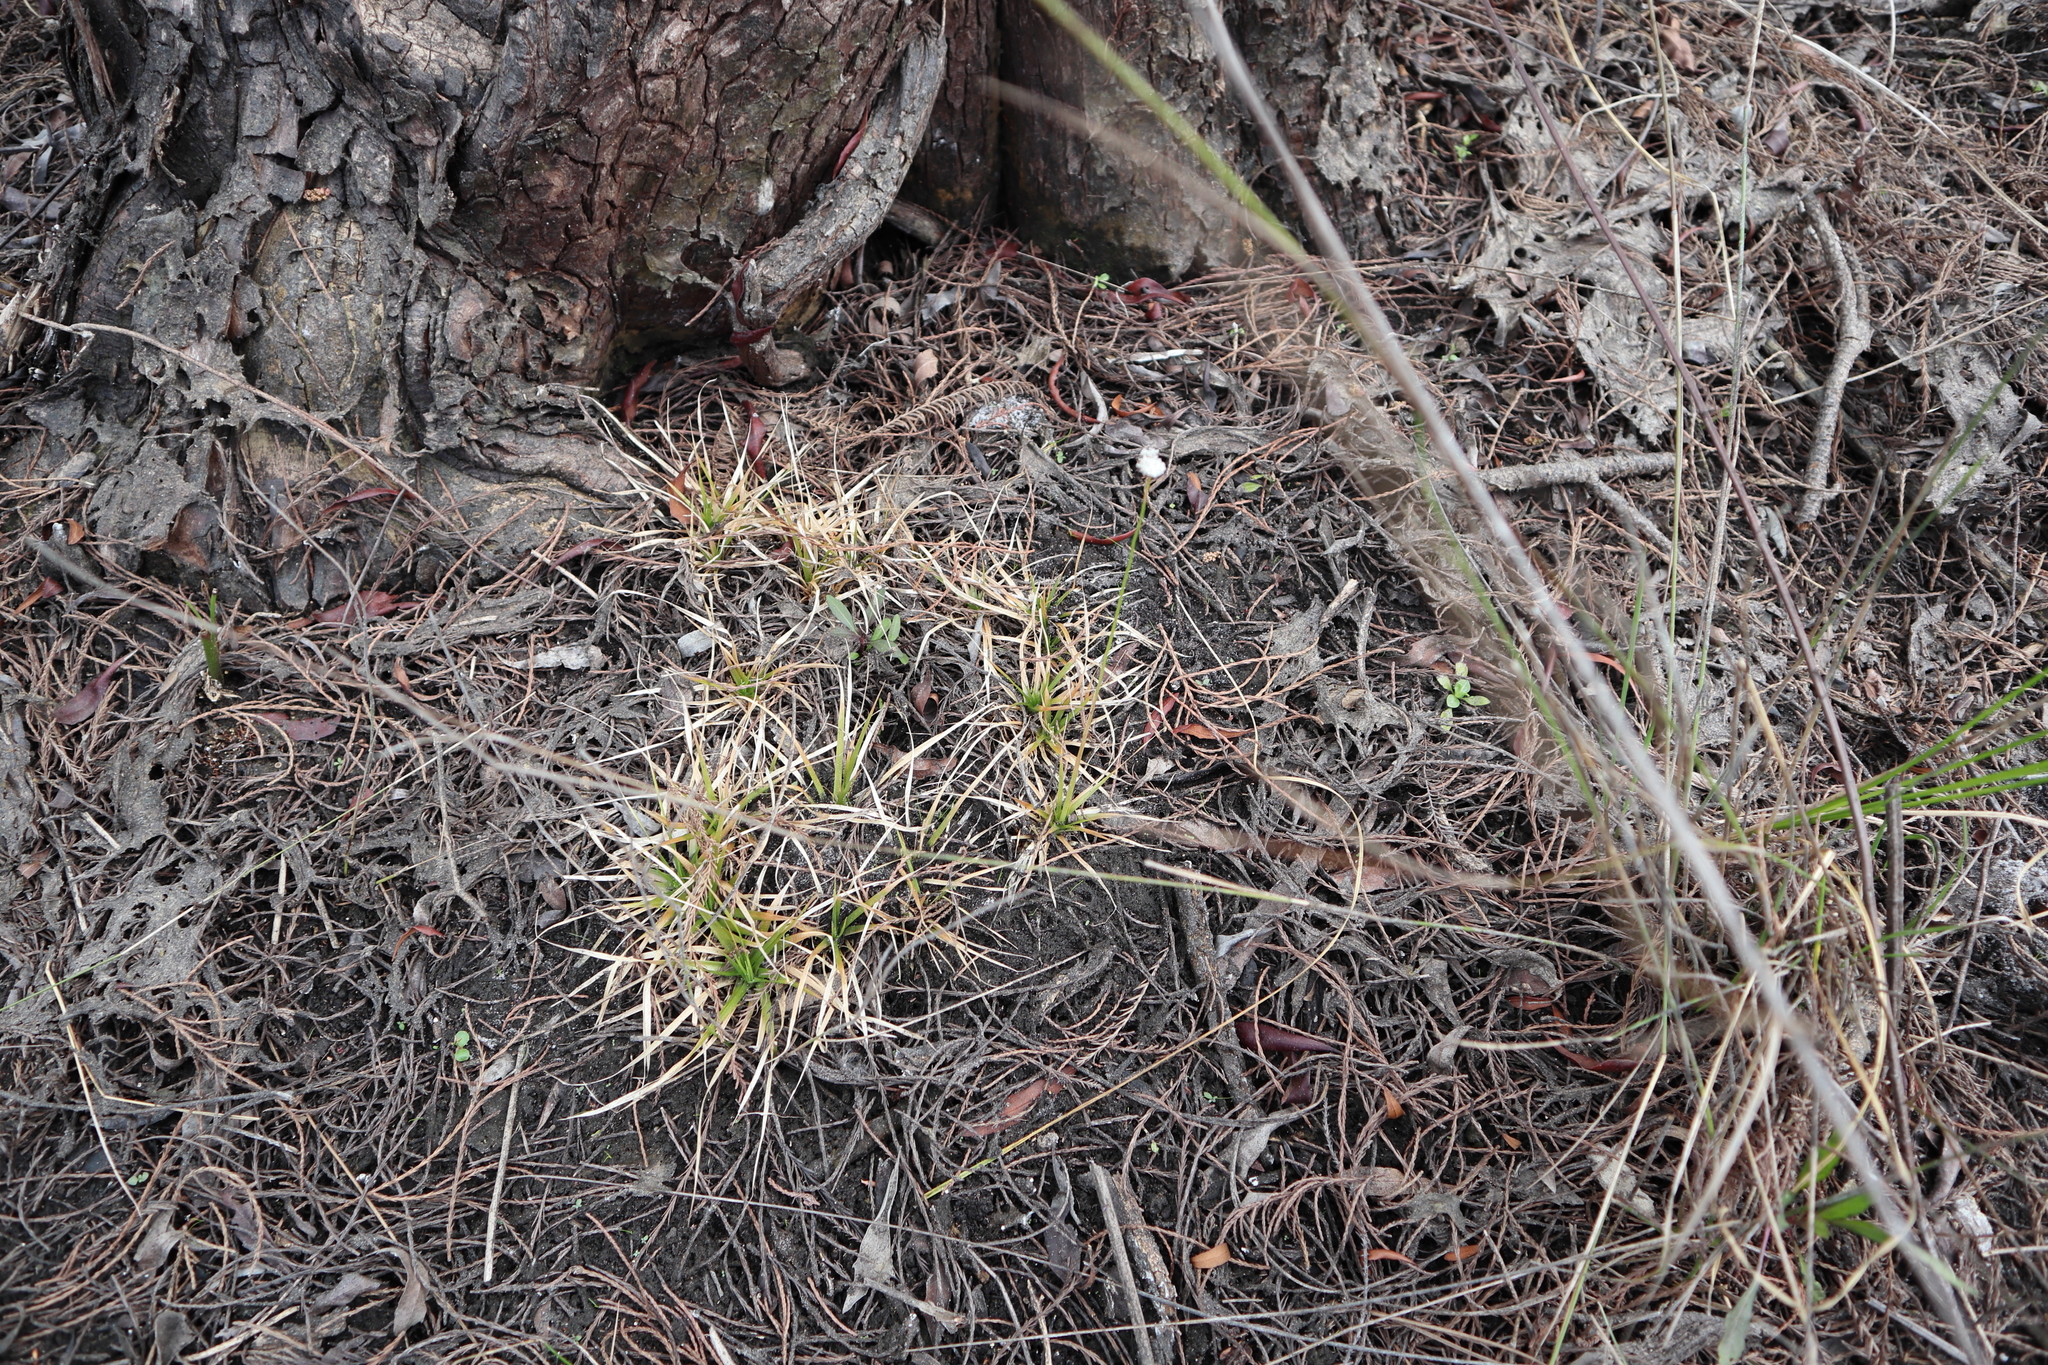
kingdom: Plantae
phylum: Tracheophyta
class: Liliopsida
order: Poales
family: Eriocaulaceae
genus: Eriocaulon
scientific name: Eriocaulon compressum
